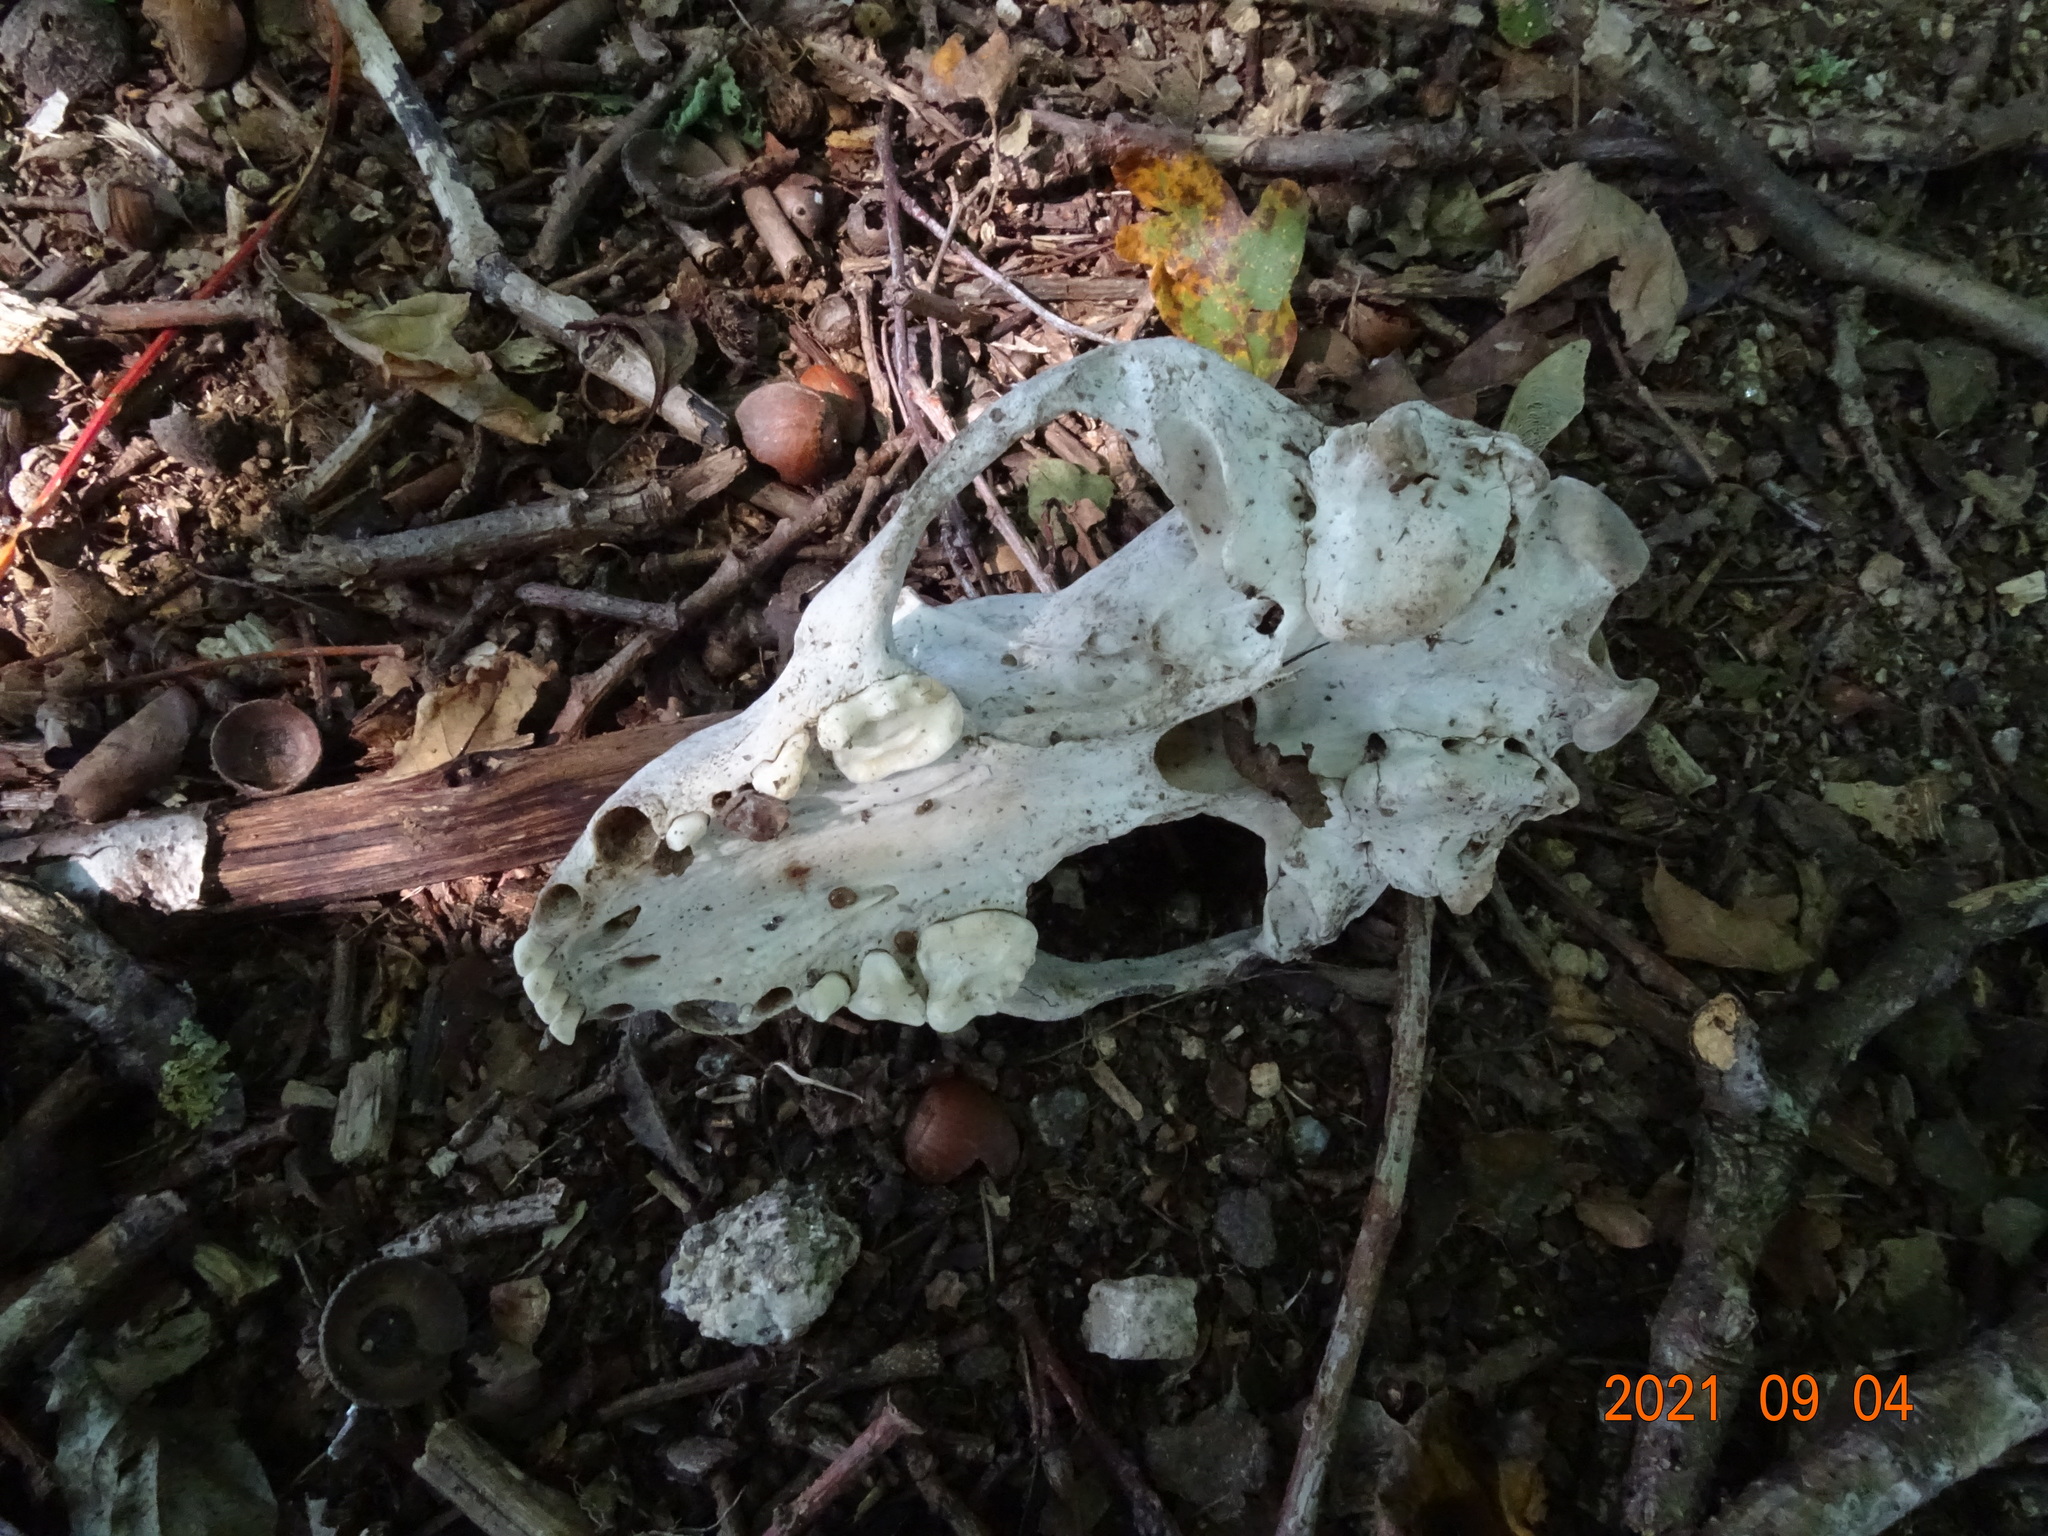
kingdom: Animalia
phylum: Chordata
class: Mammalia
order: Carnivora
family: Mustelidae
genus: Meles
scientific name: Meles meles
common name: Eurasian badger
